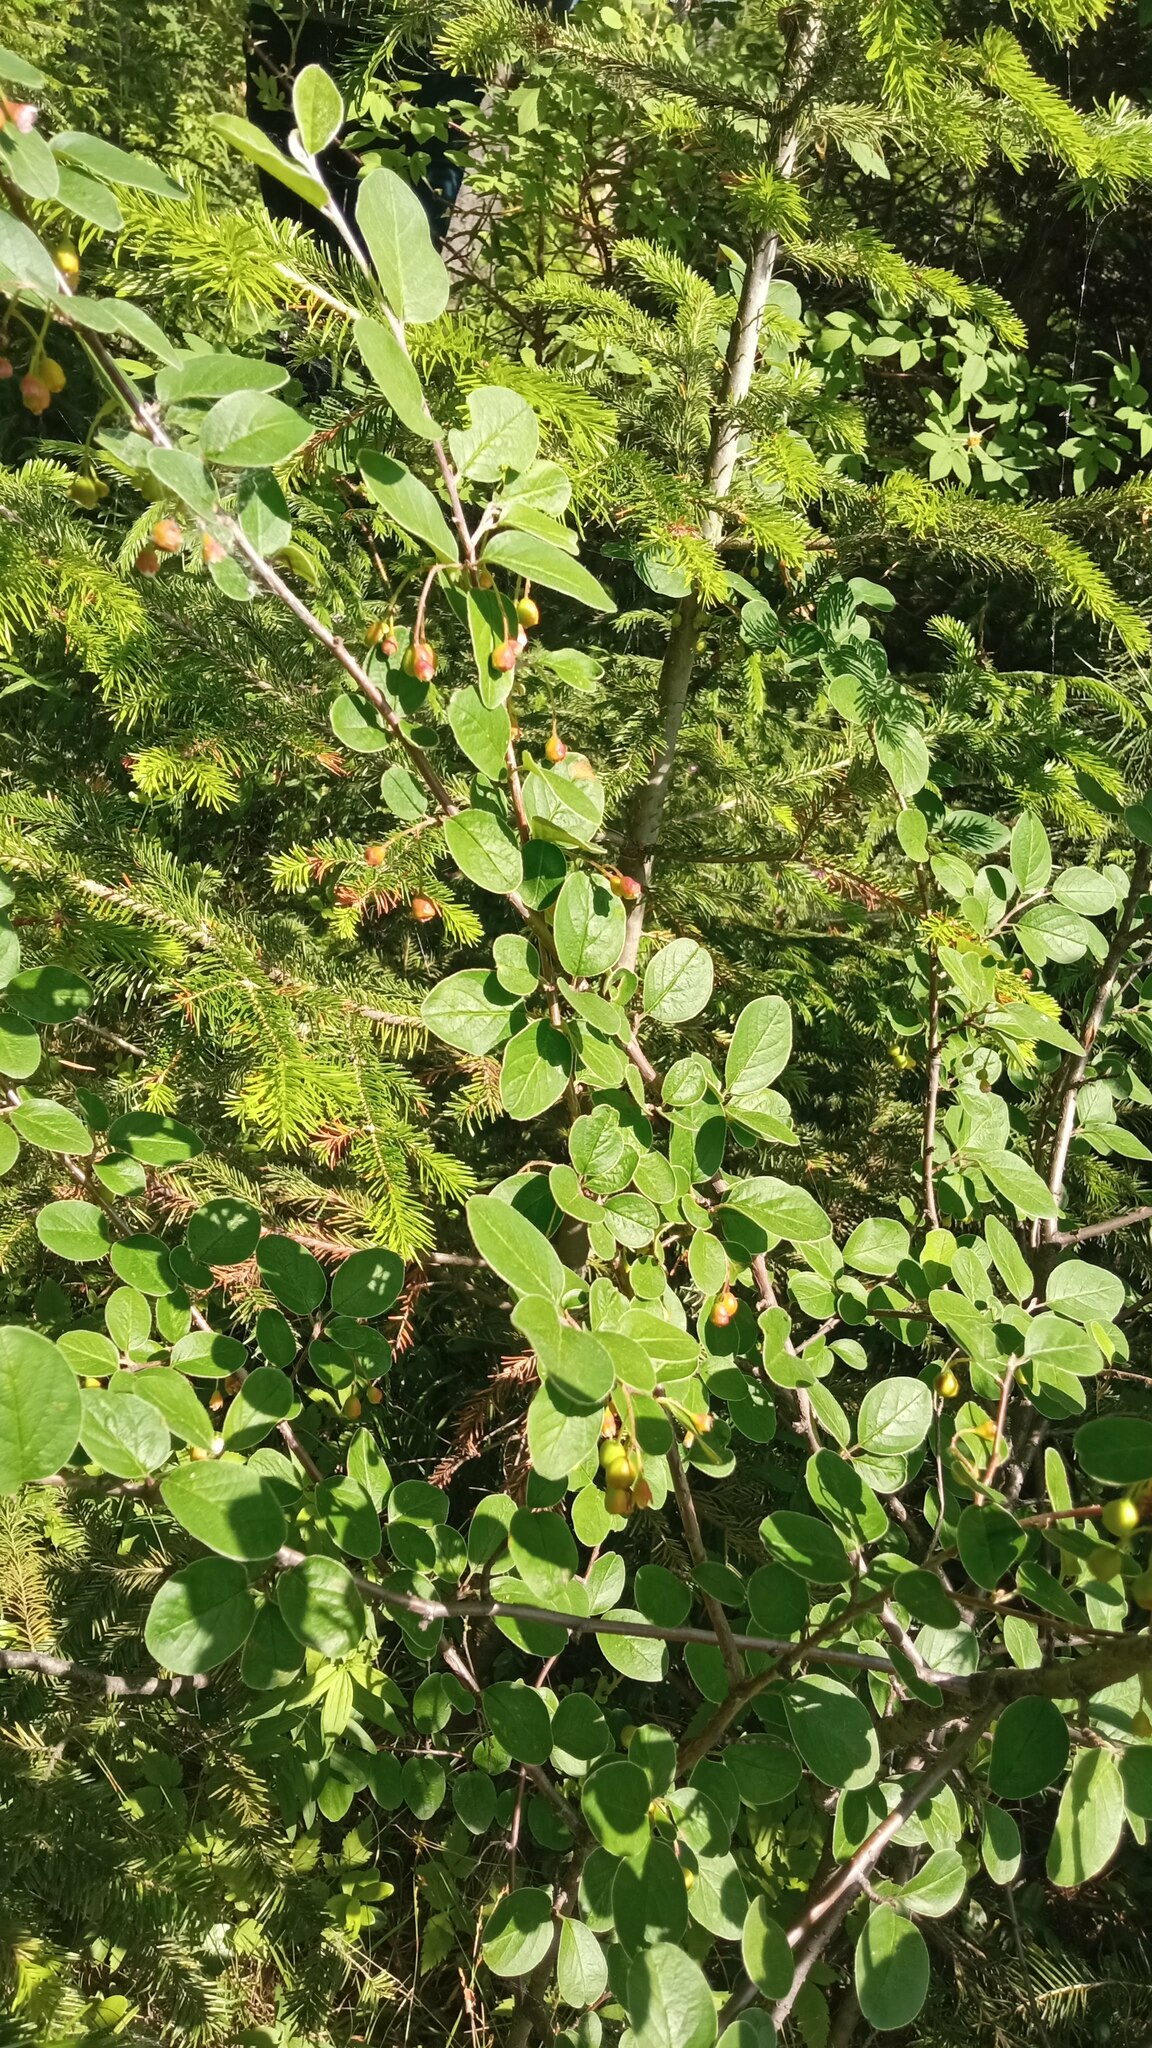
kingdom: Plantae
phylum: Tracheophyta
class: Magnoliopsida
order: Rosales
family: Rosaceae
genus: Cotoneaster
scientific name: Cotoneaster melanocarpus
